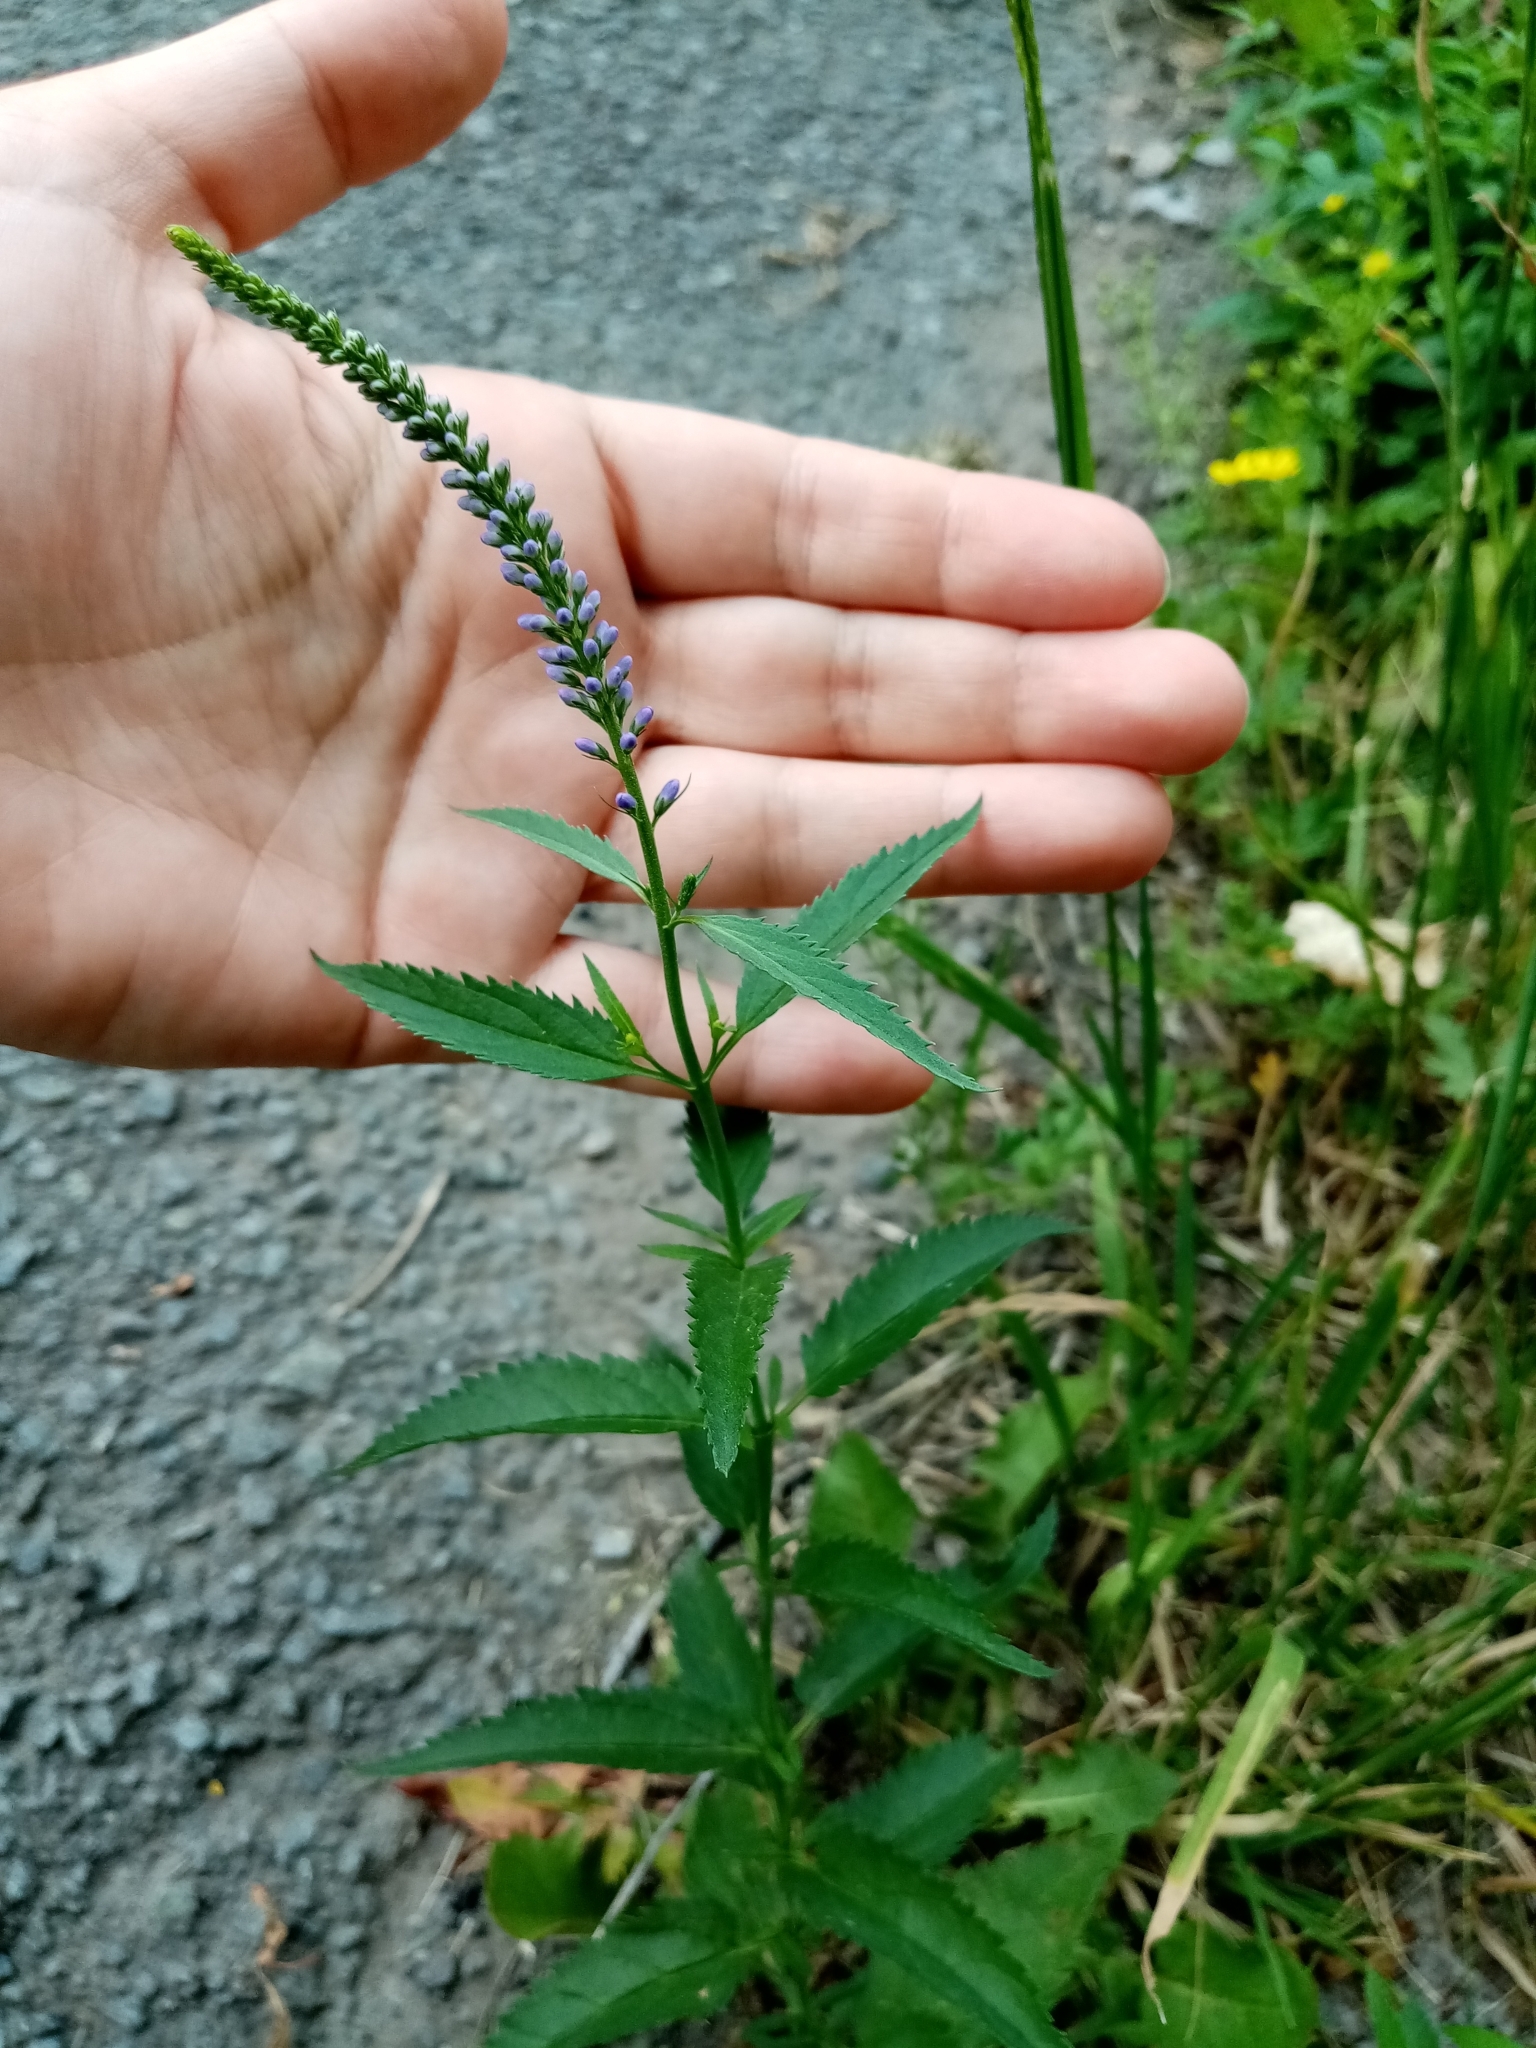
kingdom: Plantae
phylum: Tracheophyta
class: Magnoliopsida
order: Lamiales
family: Plantaginaceae
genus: Veronica
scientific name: Veronica longifolia
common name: Garden speedwell
